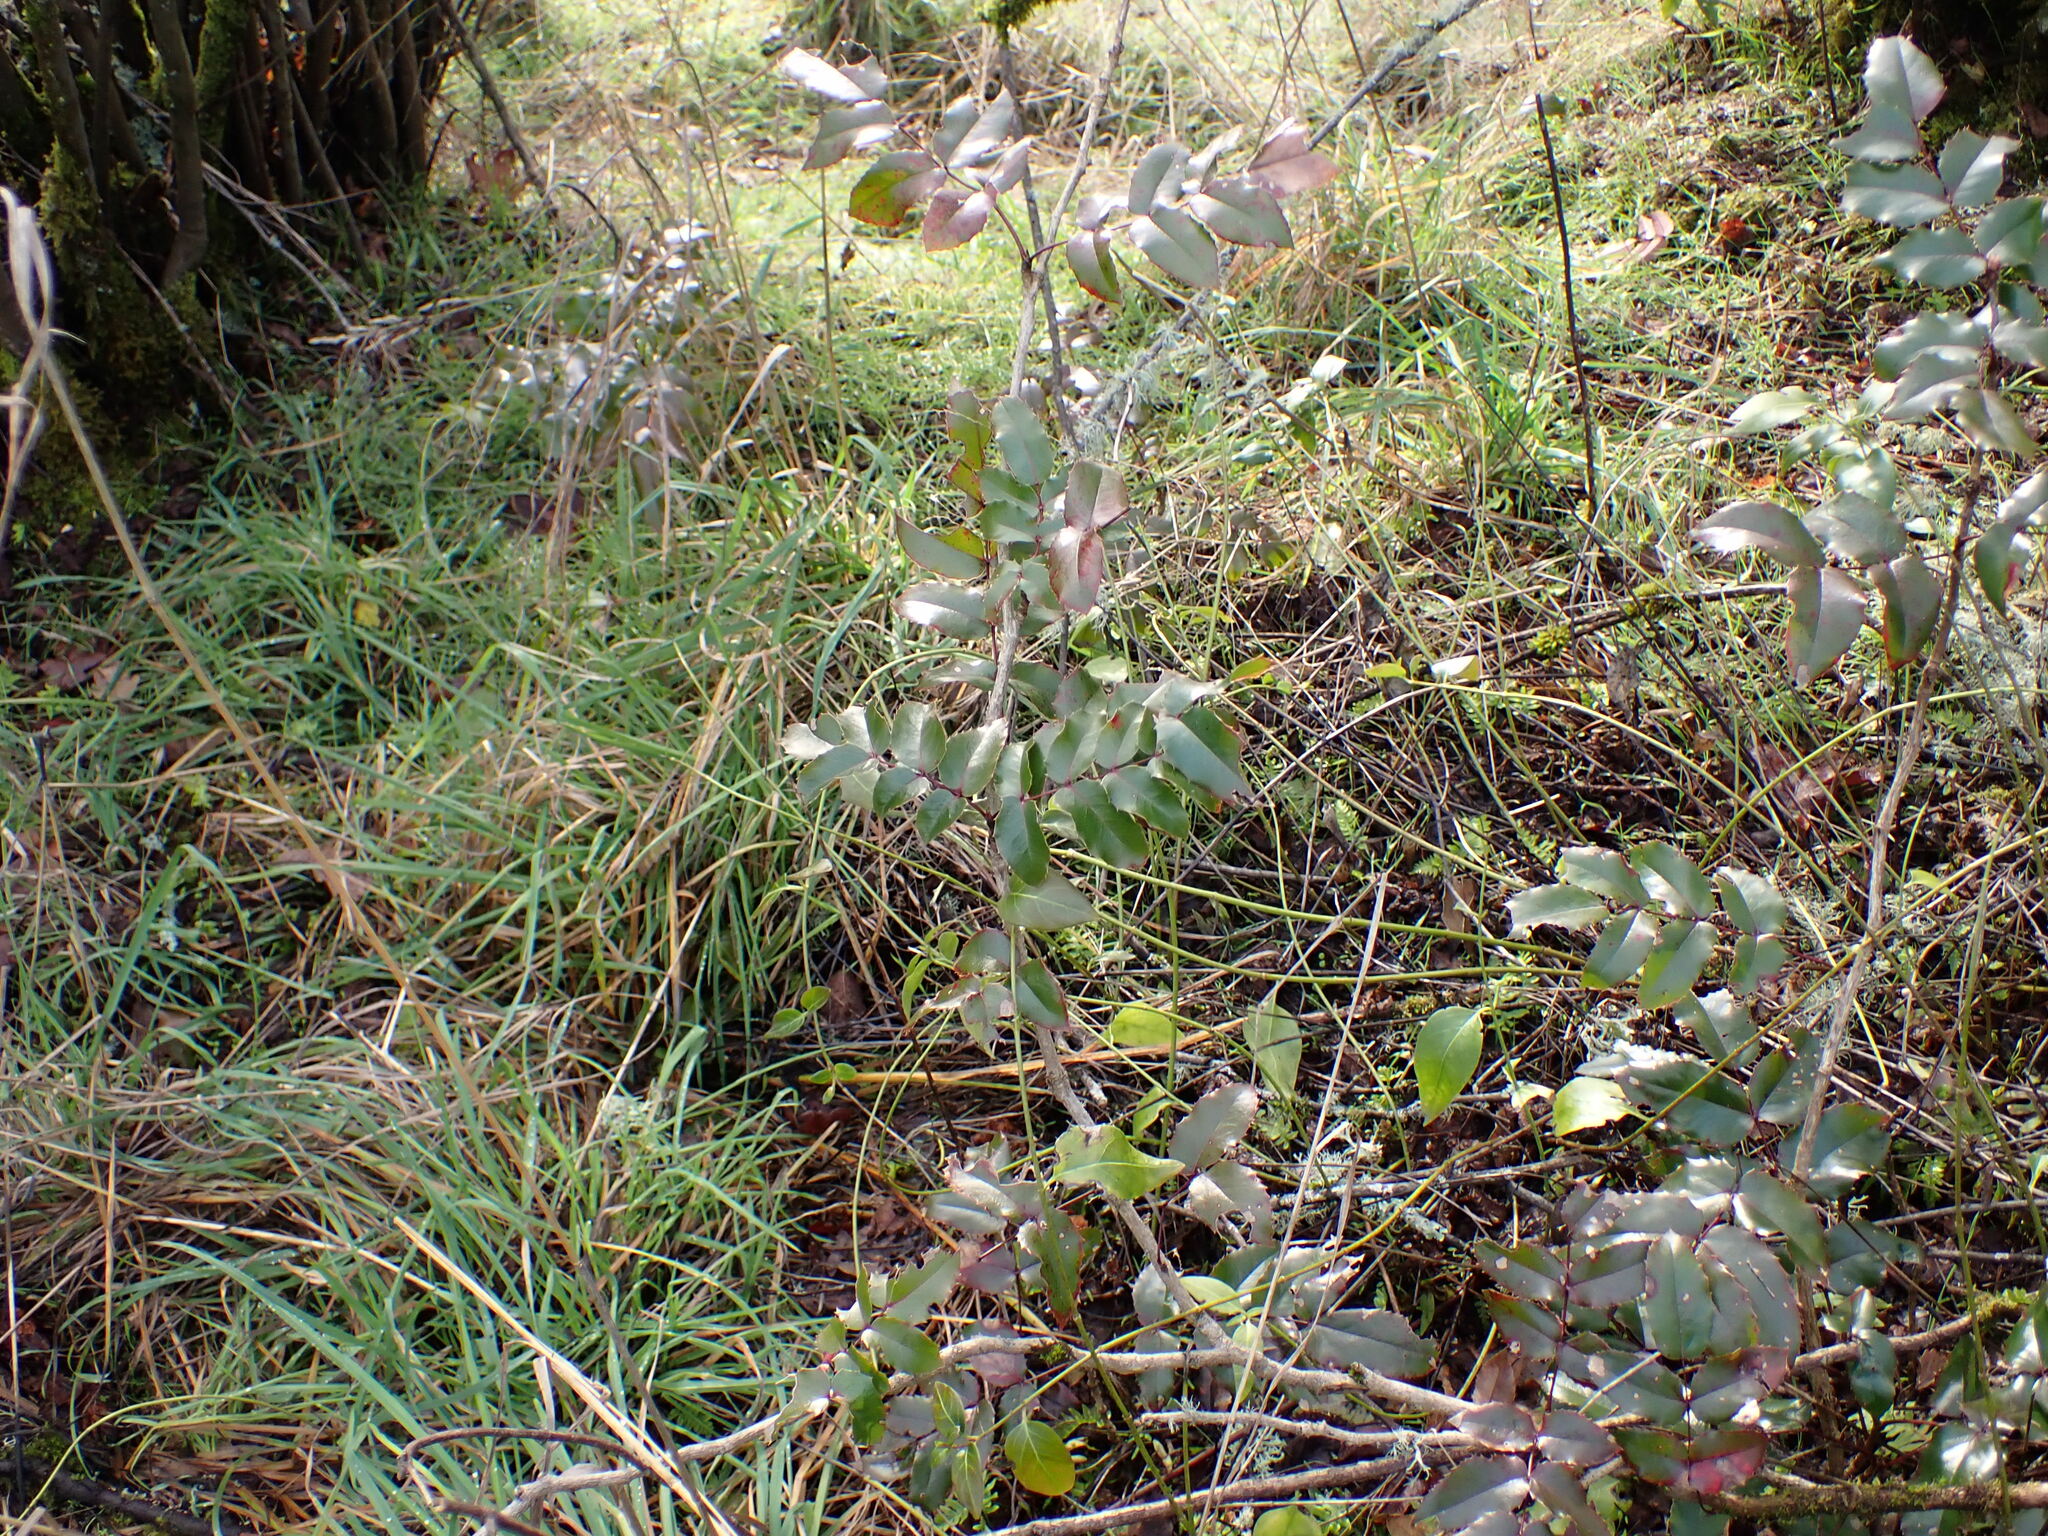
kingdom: Plantae
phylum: Tracheophyta
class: Magnoliopsida
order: Ranunculales
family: Berberidaceae
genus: Mahonia
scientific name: Mahonia aquifolium
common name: Oregon-grape
